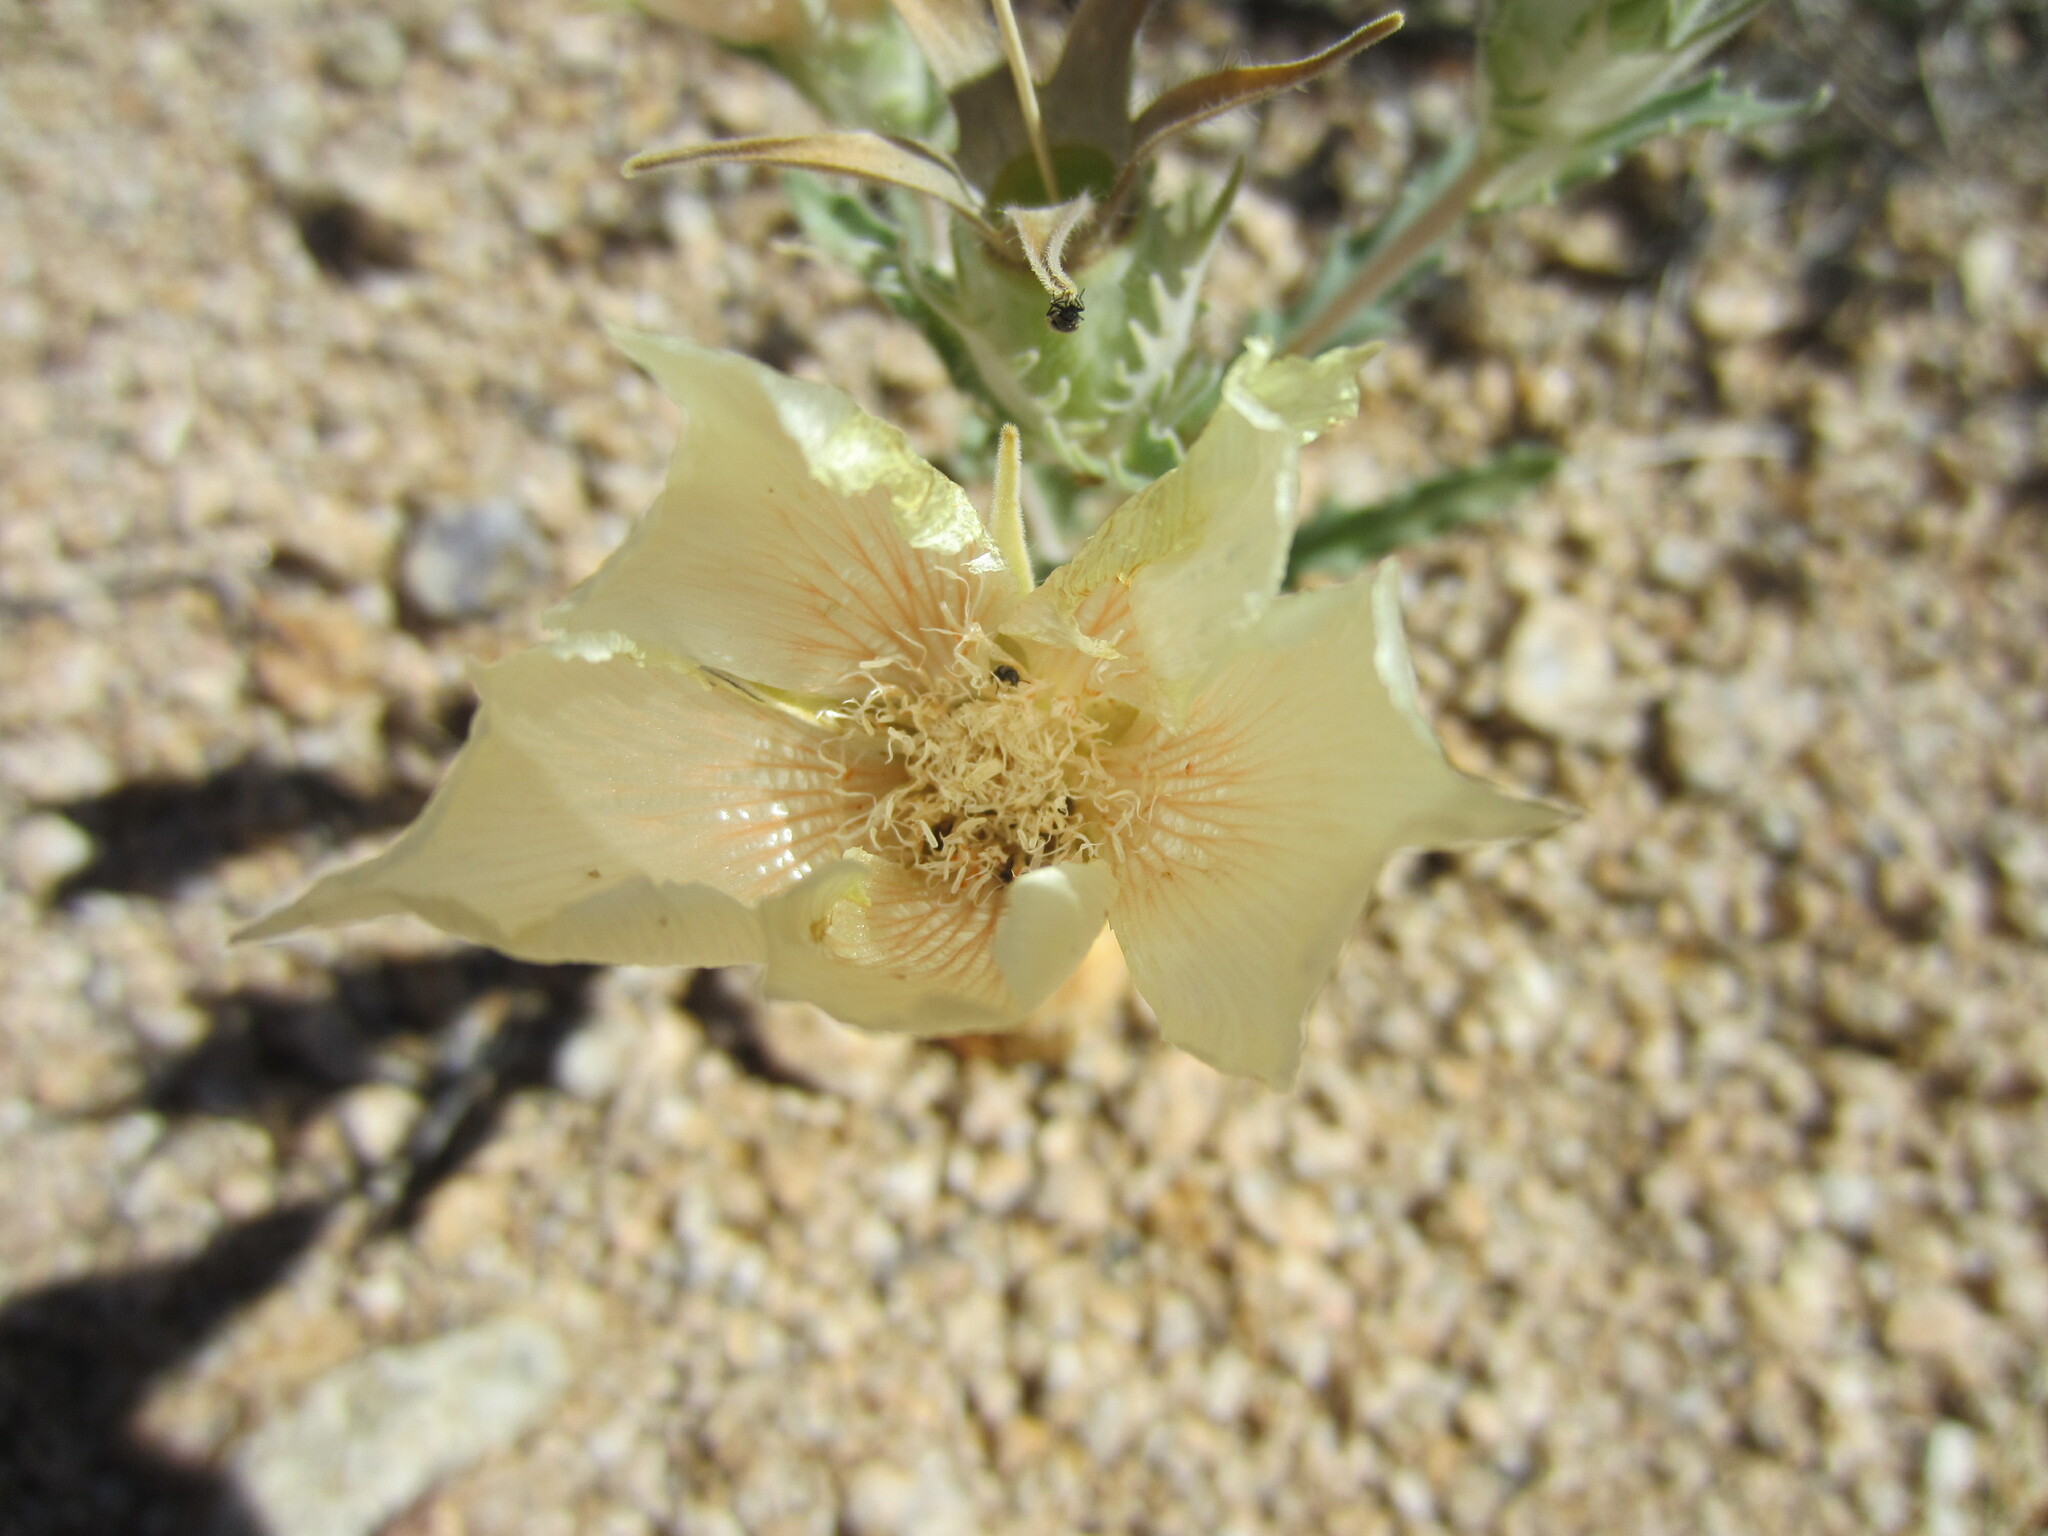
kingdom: Plantae
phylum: Tracheophyta
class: Magnoliopsida
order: Cornales
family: Loasaceae
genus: Mentzelia
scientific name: Mentzelia involucrata
